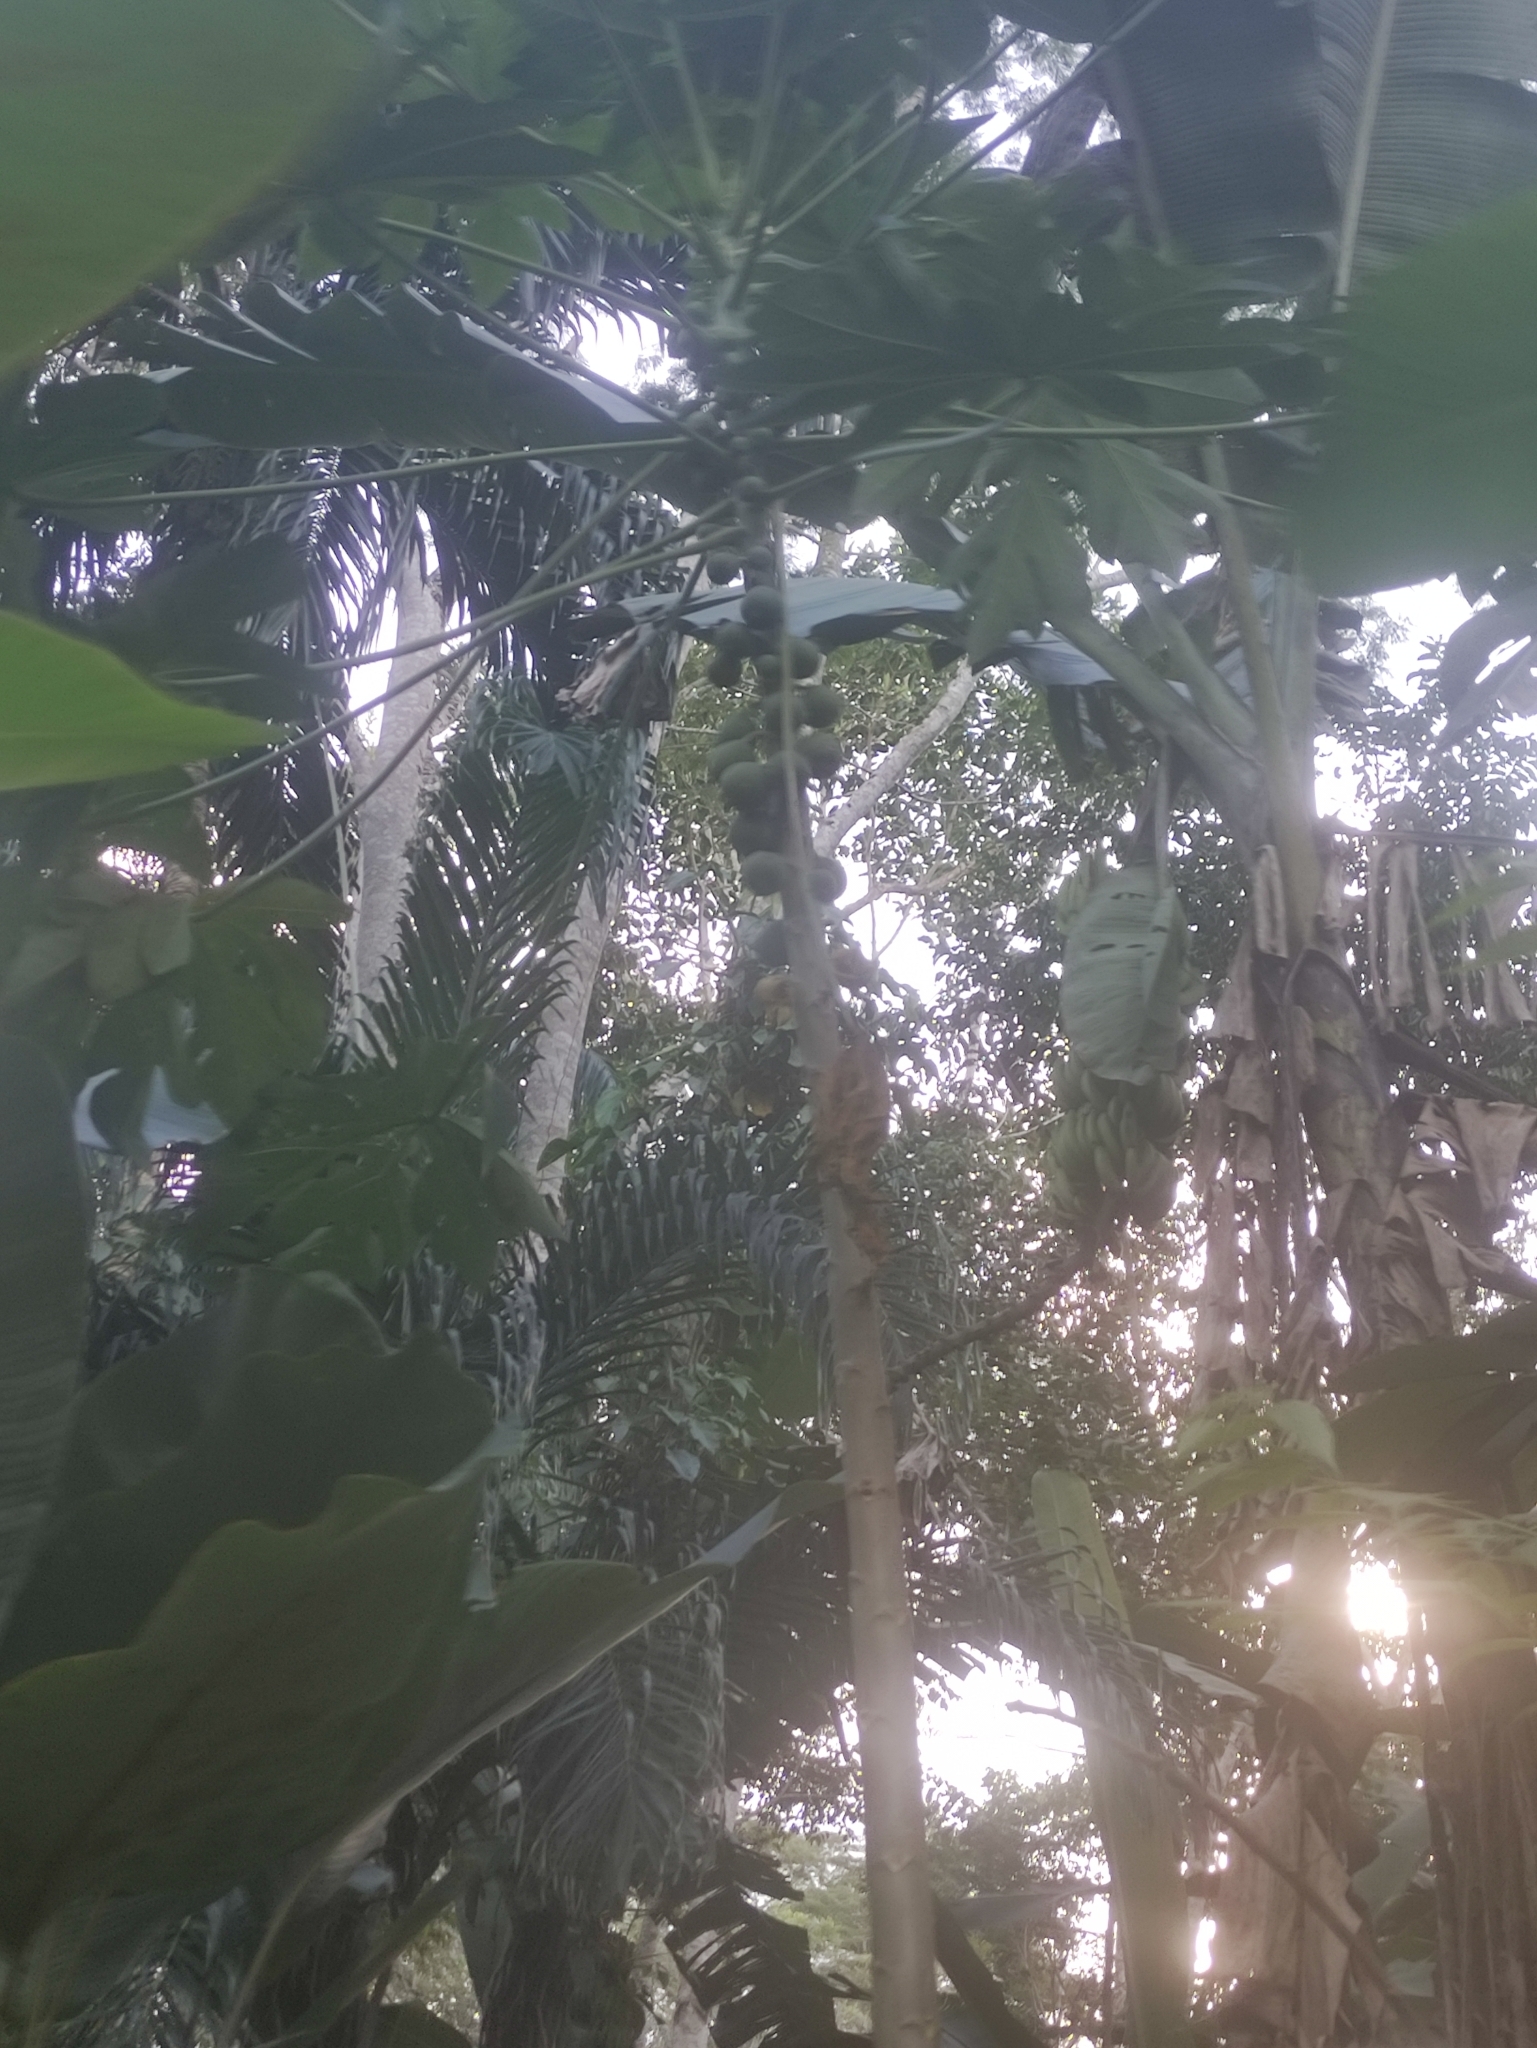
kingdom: Plantae
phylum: Tracheophyta
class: Magnoliopsida
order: Brassicales
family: Caricaceae
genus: Carica
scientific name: Carica papaya
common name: Papaya
